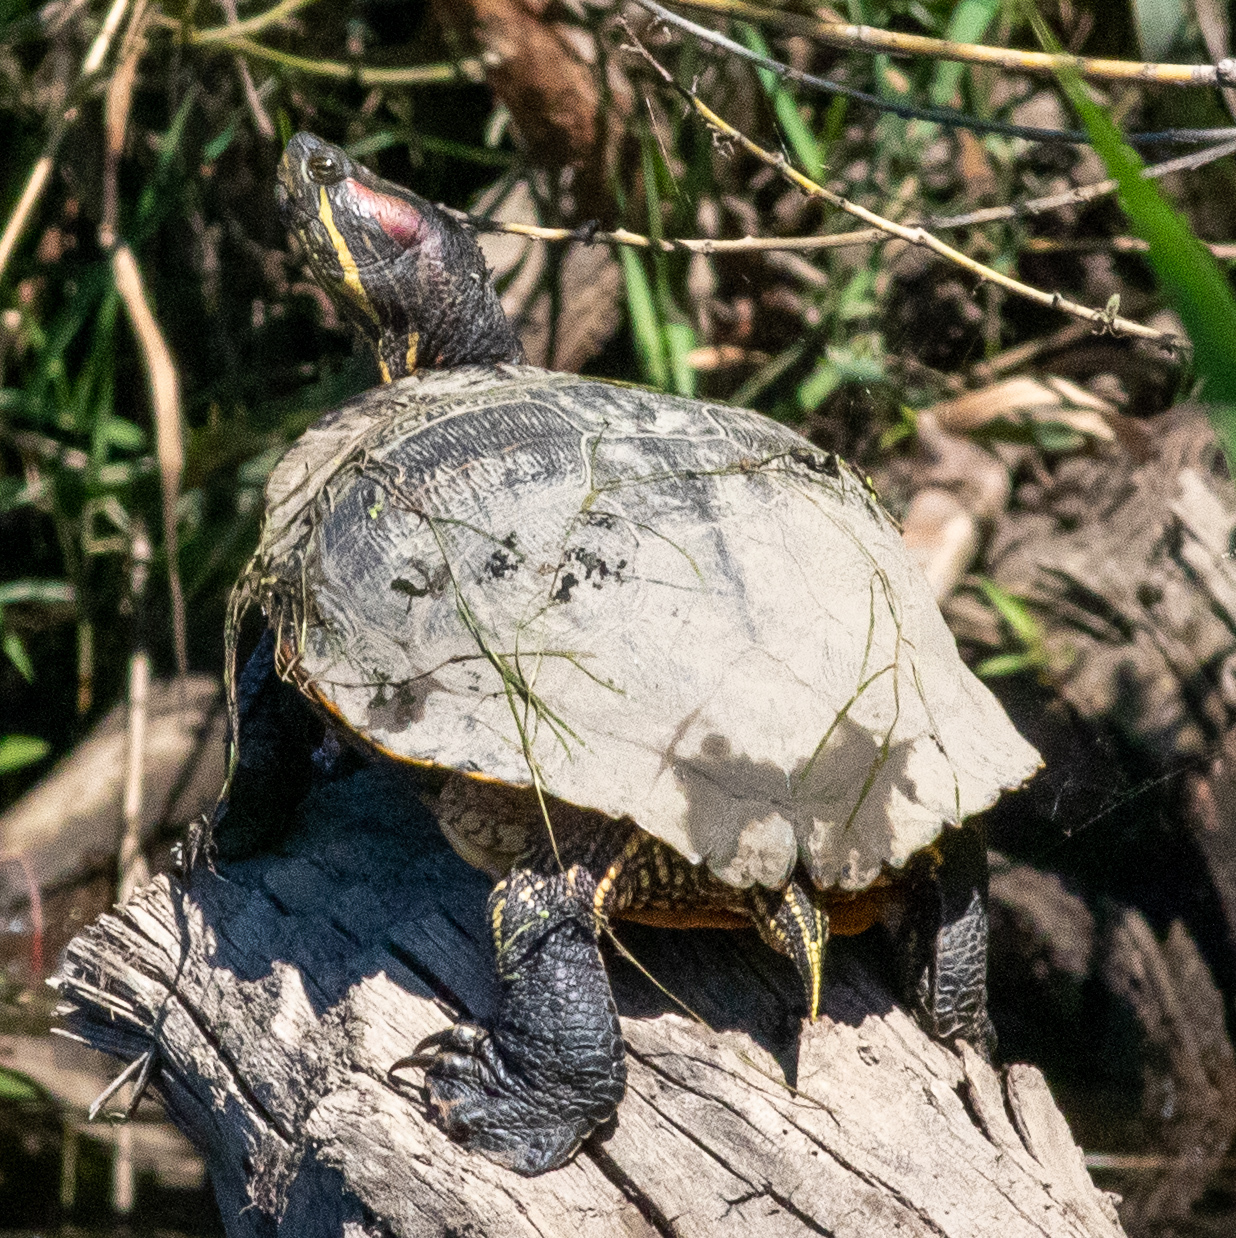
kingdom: Animalia
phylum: Chordata
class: Testudines
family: Emydidae
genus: Trachemys
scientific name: Trachemys scripta
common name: Slider
